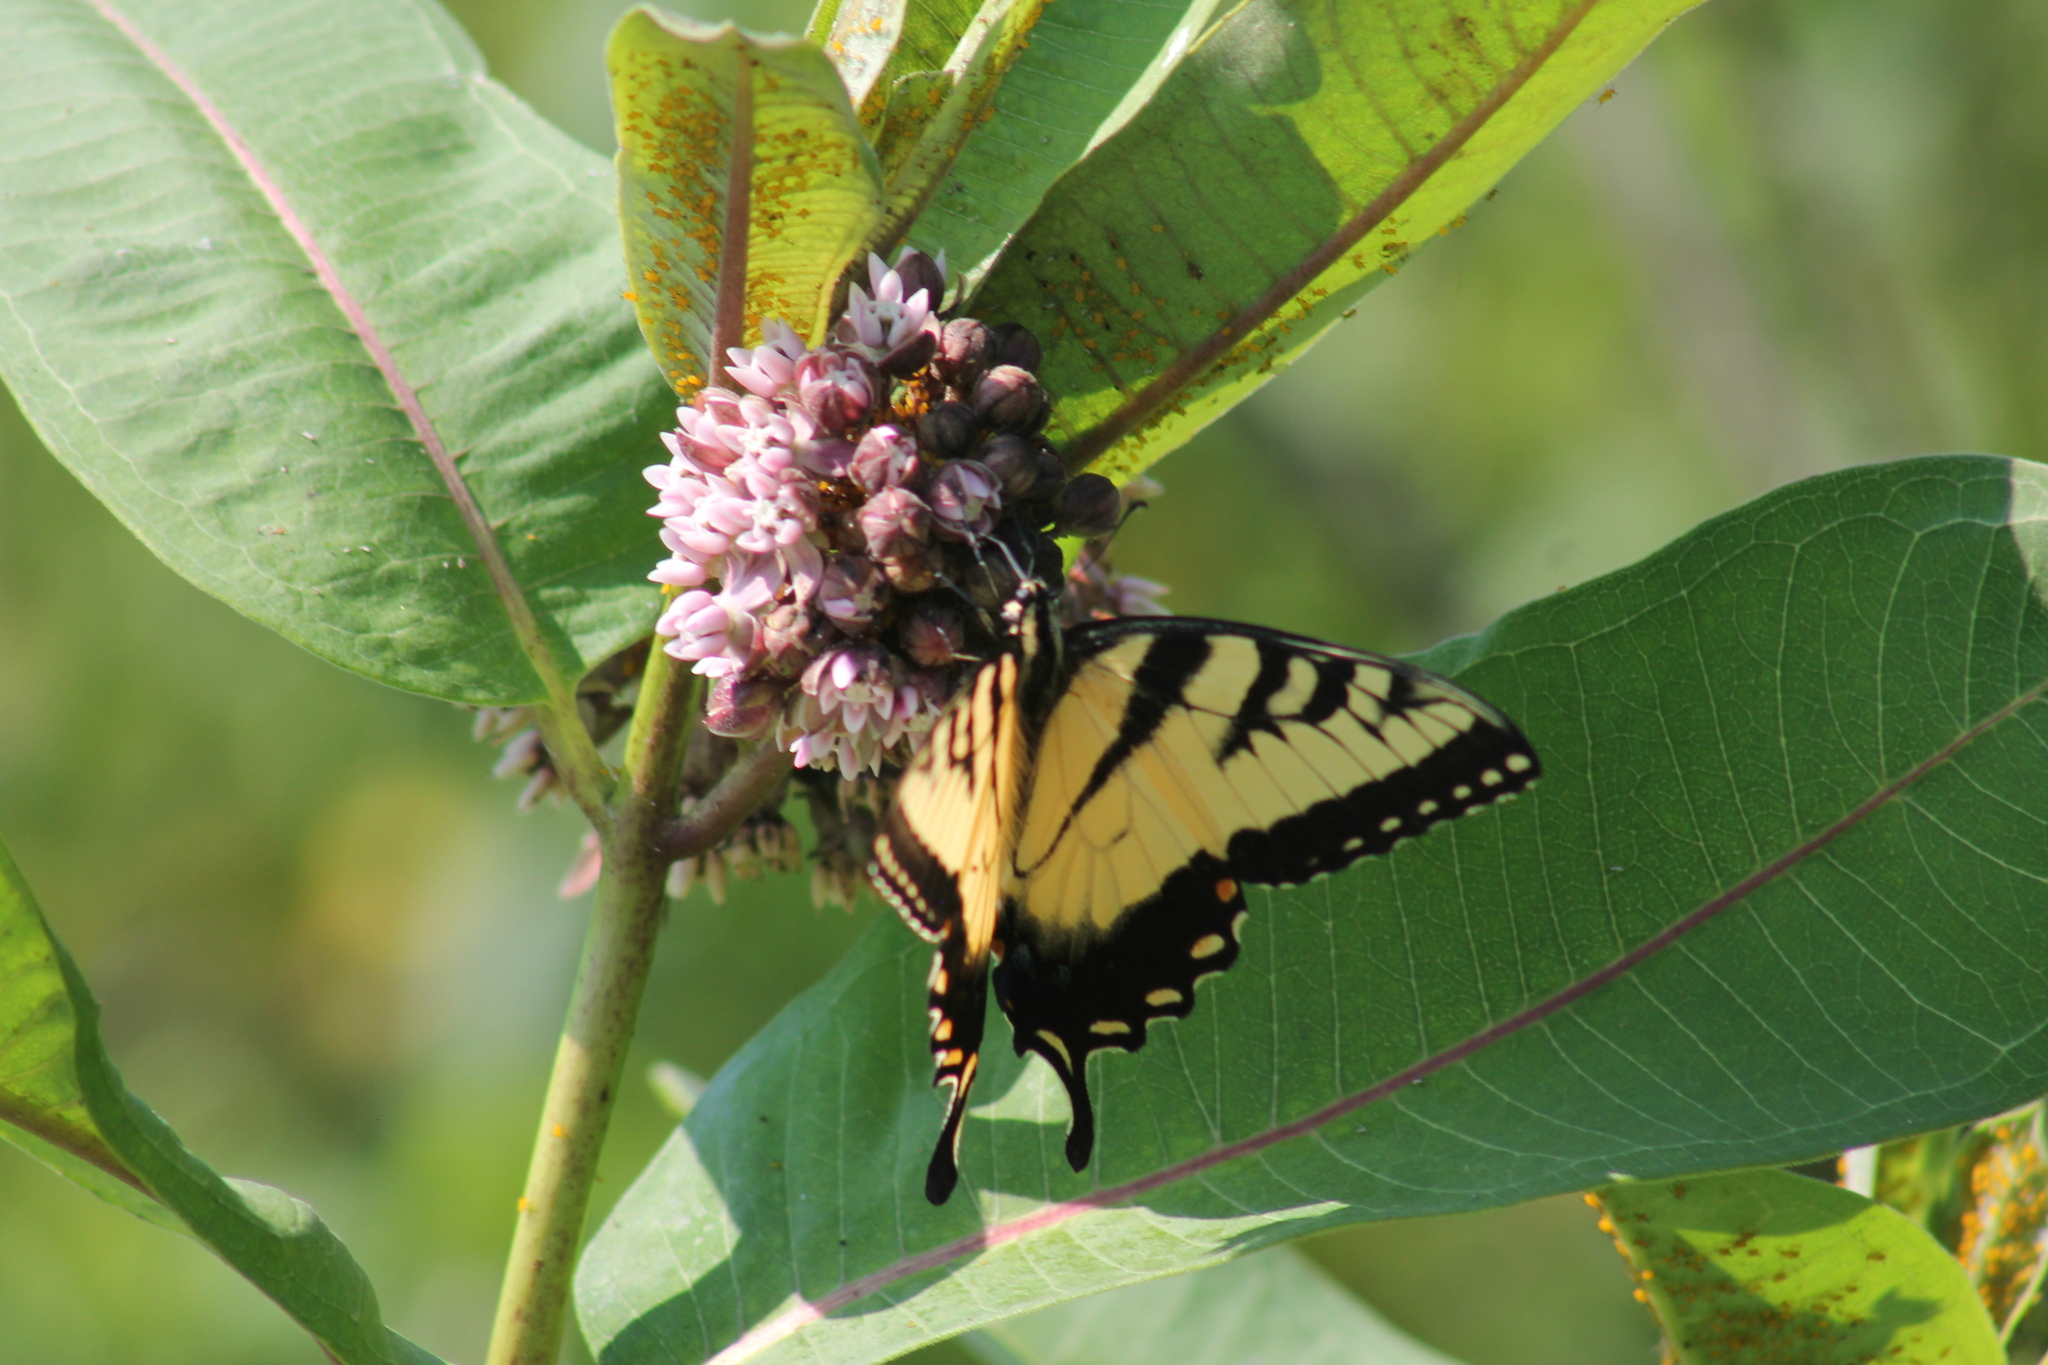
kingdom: Animalia
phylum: Arthropoda
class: Insecta
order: Lepidoptera
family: Papilionidae
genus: Papilio
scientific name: Papilio glaucus
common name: Tiger swallowtail
